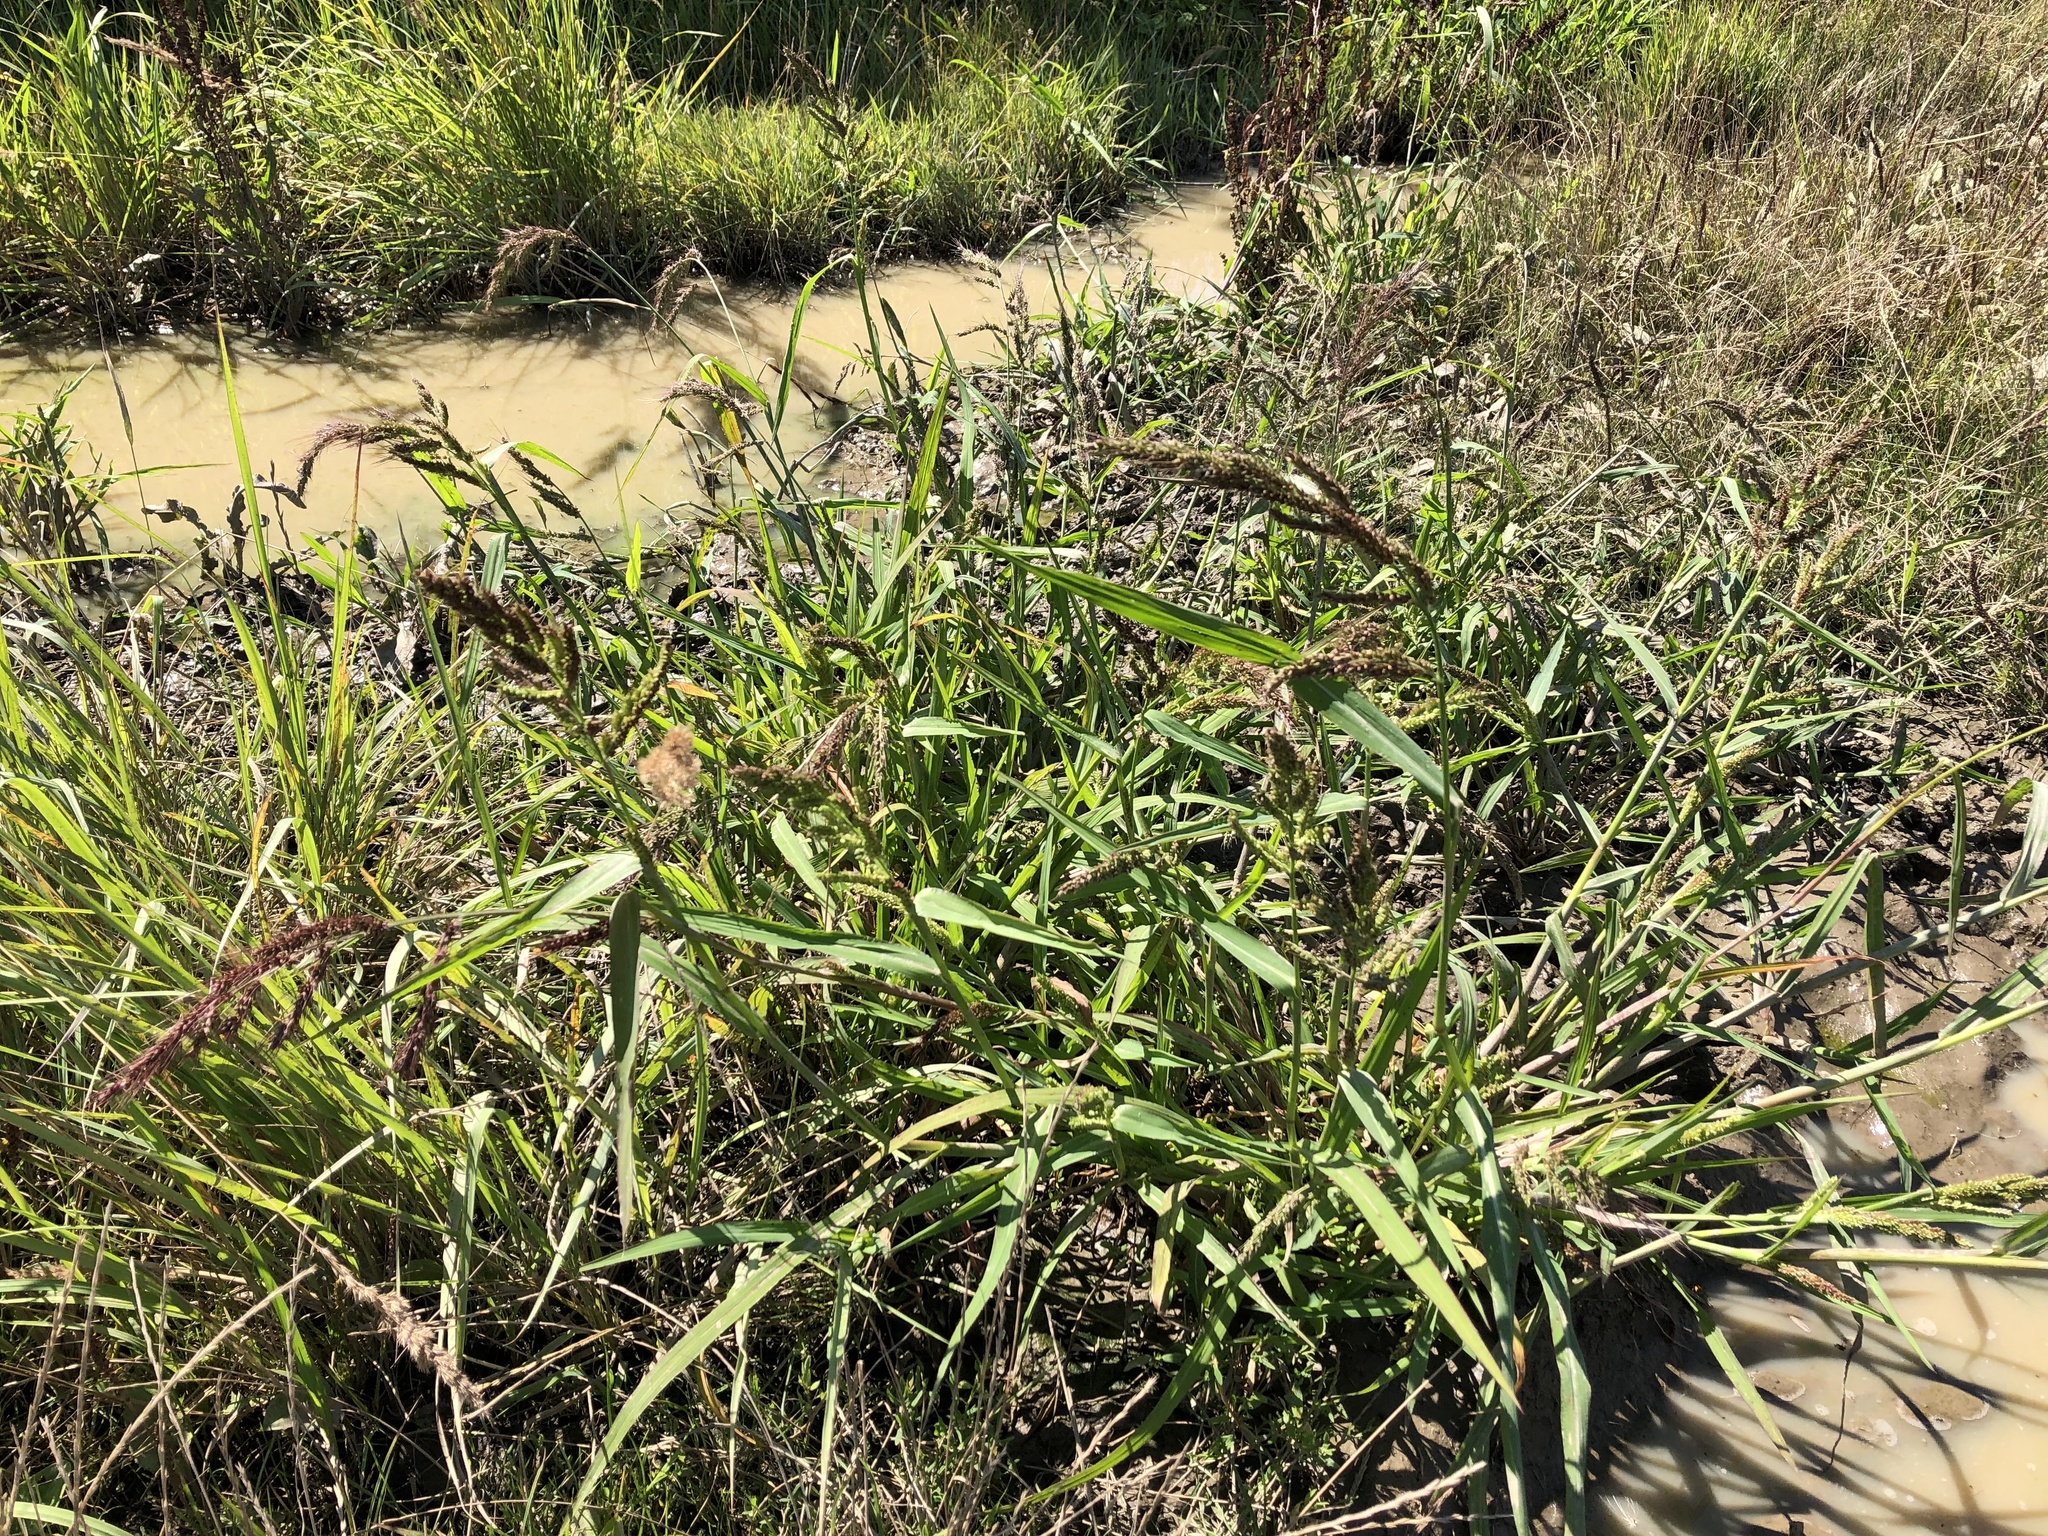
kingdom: Plantae
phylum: Tracheophyta
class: Liliopsida
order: Poales
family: Poaceae
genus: Echinochloa
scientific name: Echinochloa crus-galli
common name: Cockspur
